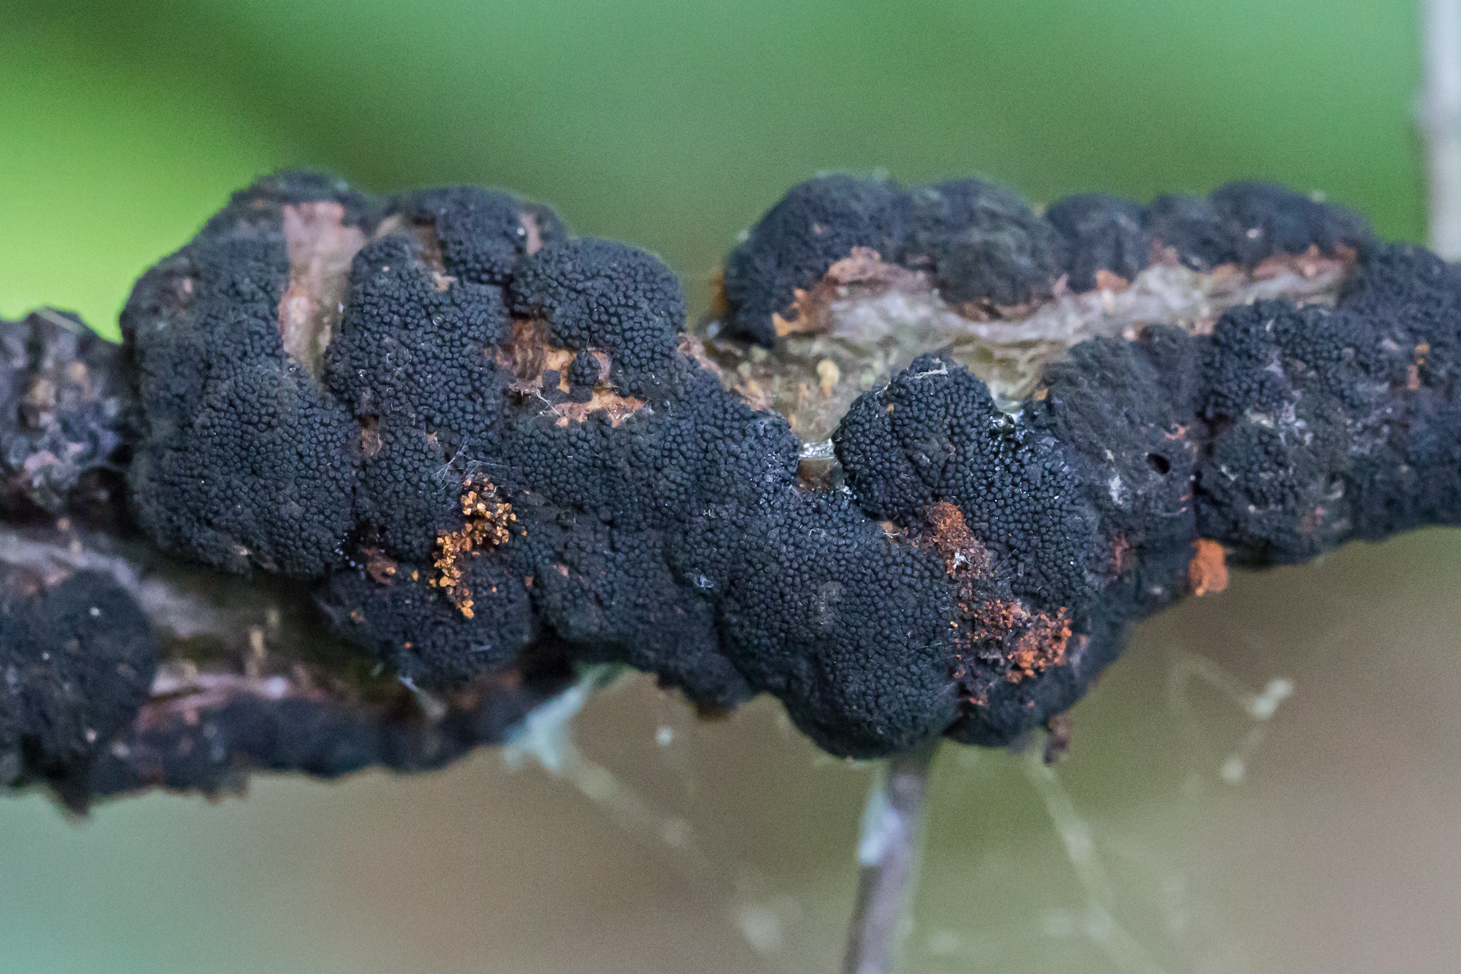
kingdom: Fungi
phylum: Ascomycota
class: Dothideomycetes
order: Venturiales
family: Venturiaceae
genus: Apiosporina
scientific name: Apiosporina morbosa
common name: Black knot
